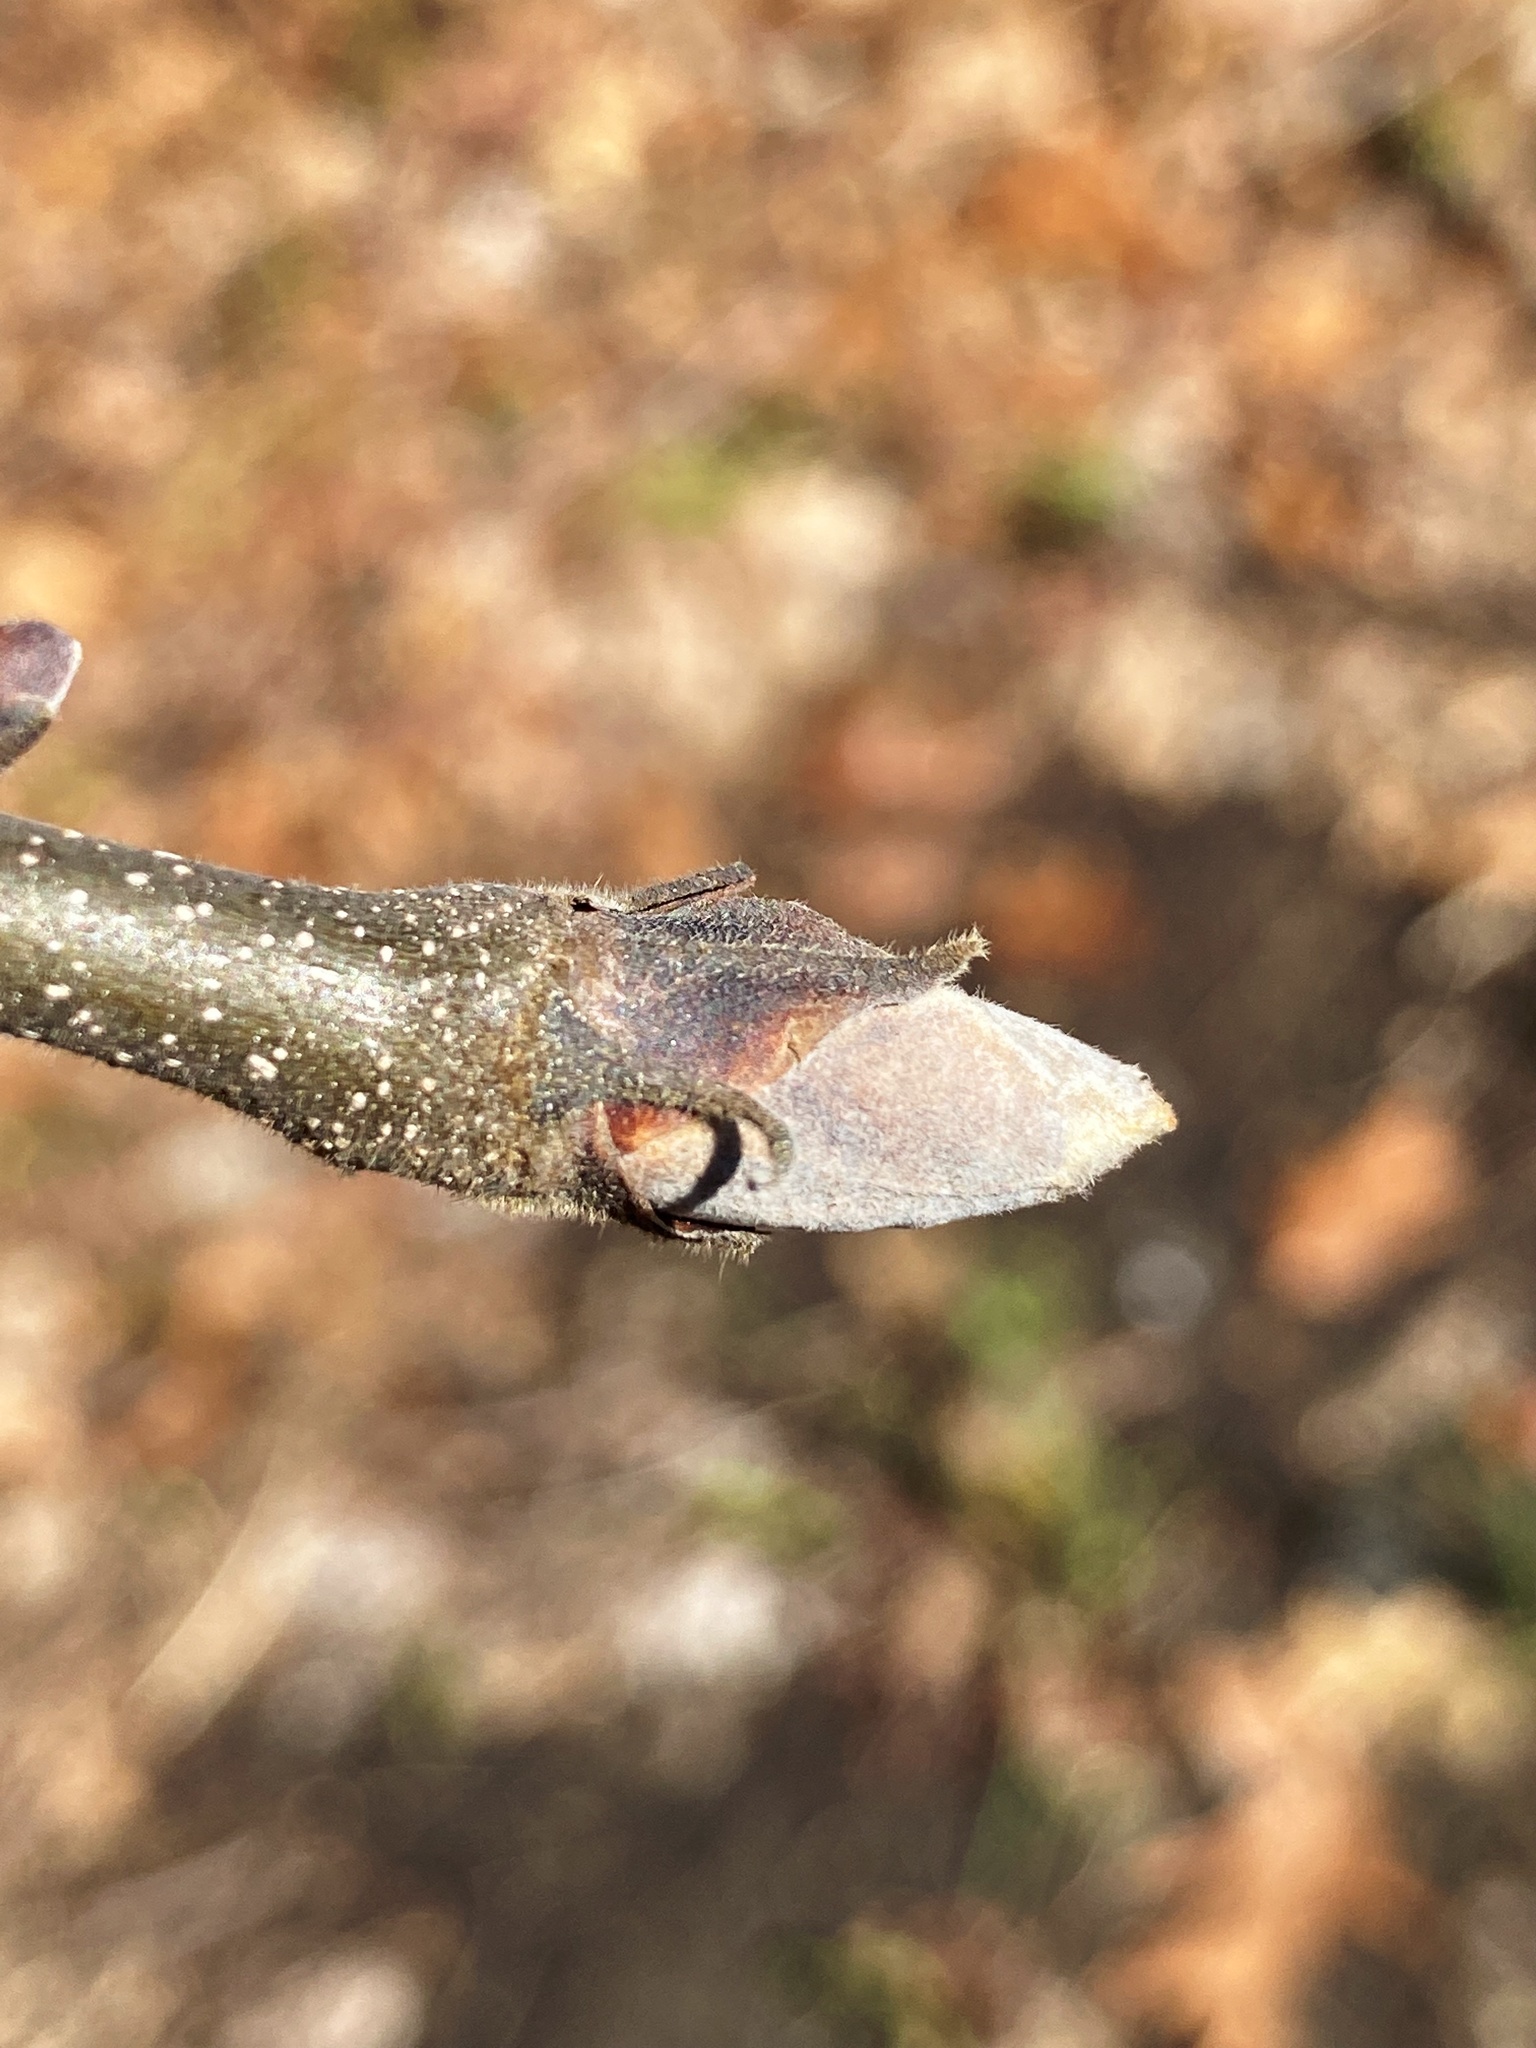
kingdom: Plantae
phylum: Tracheophyta
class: Magnoliopsida
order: Fagales
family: Juglandaceae
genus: Carya
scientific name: Carya ovata
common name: Shagbark hickory
